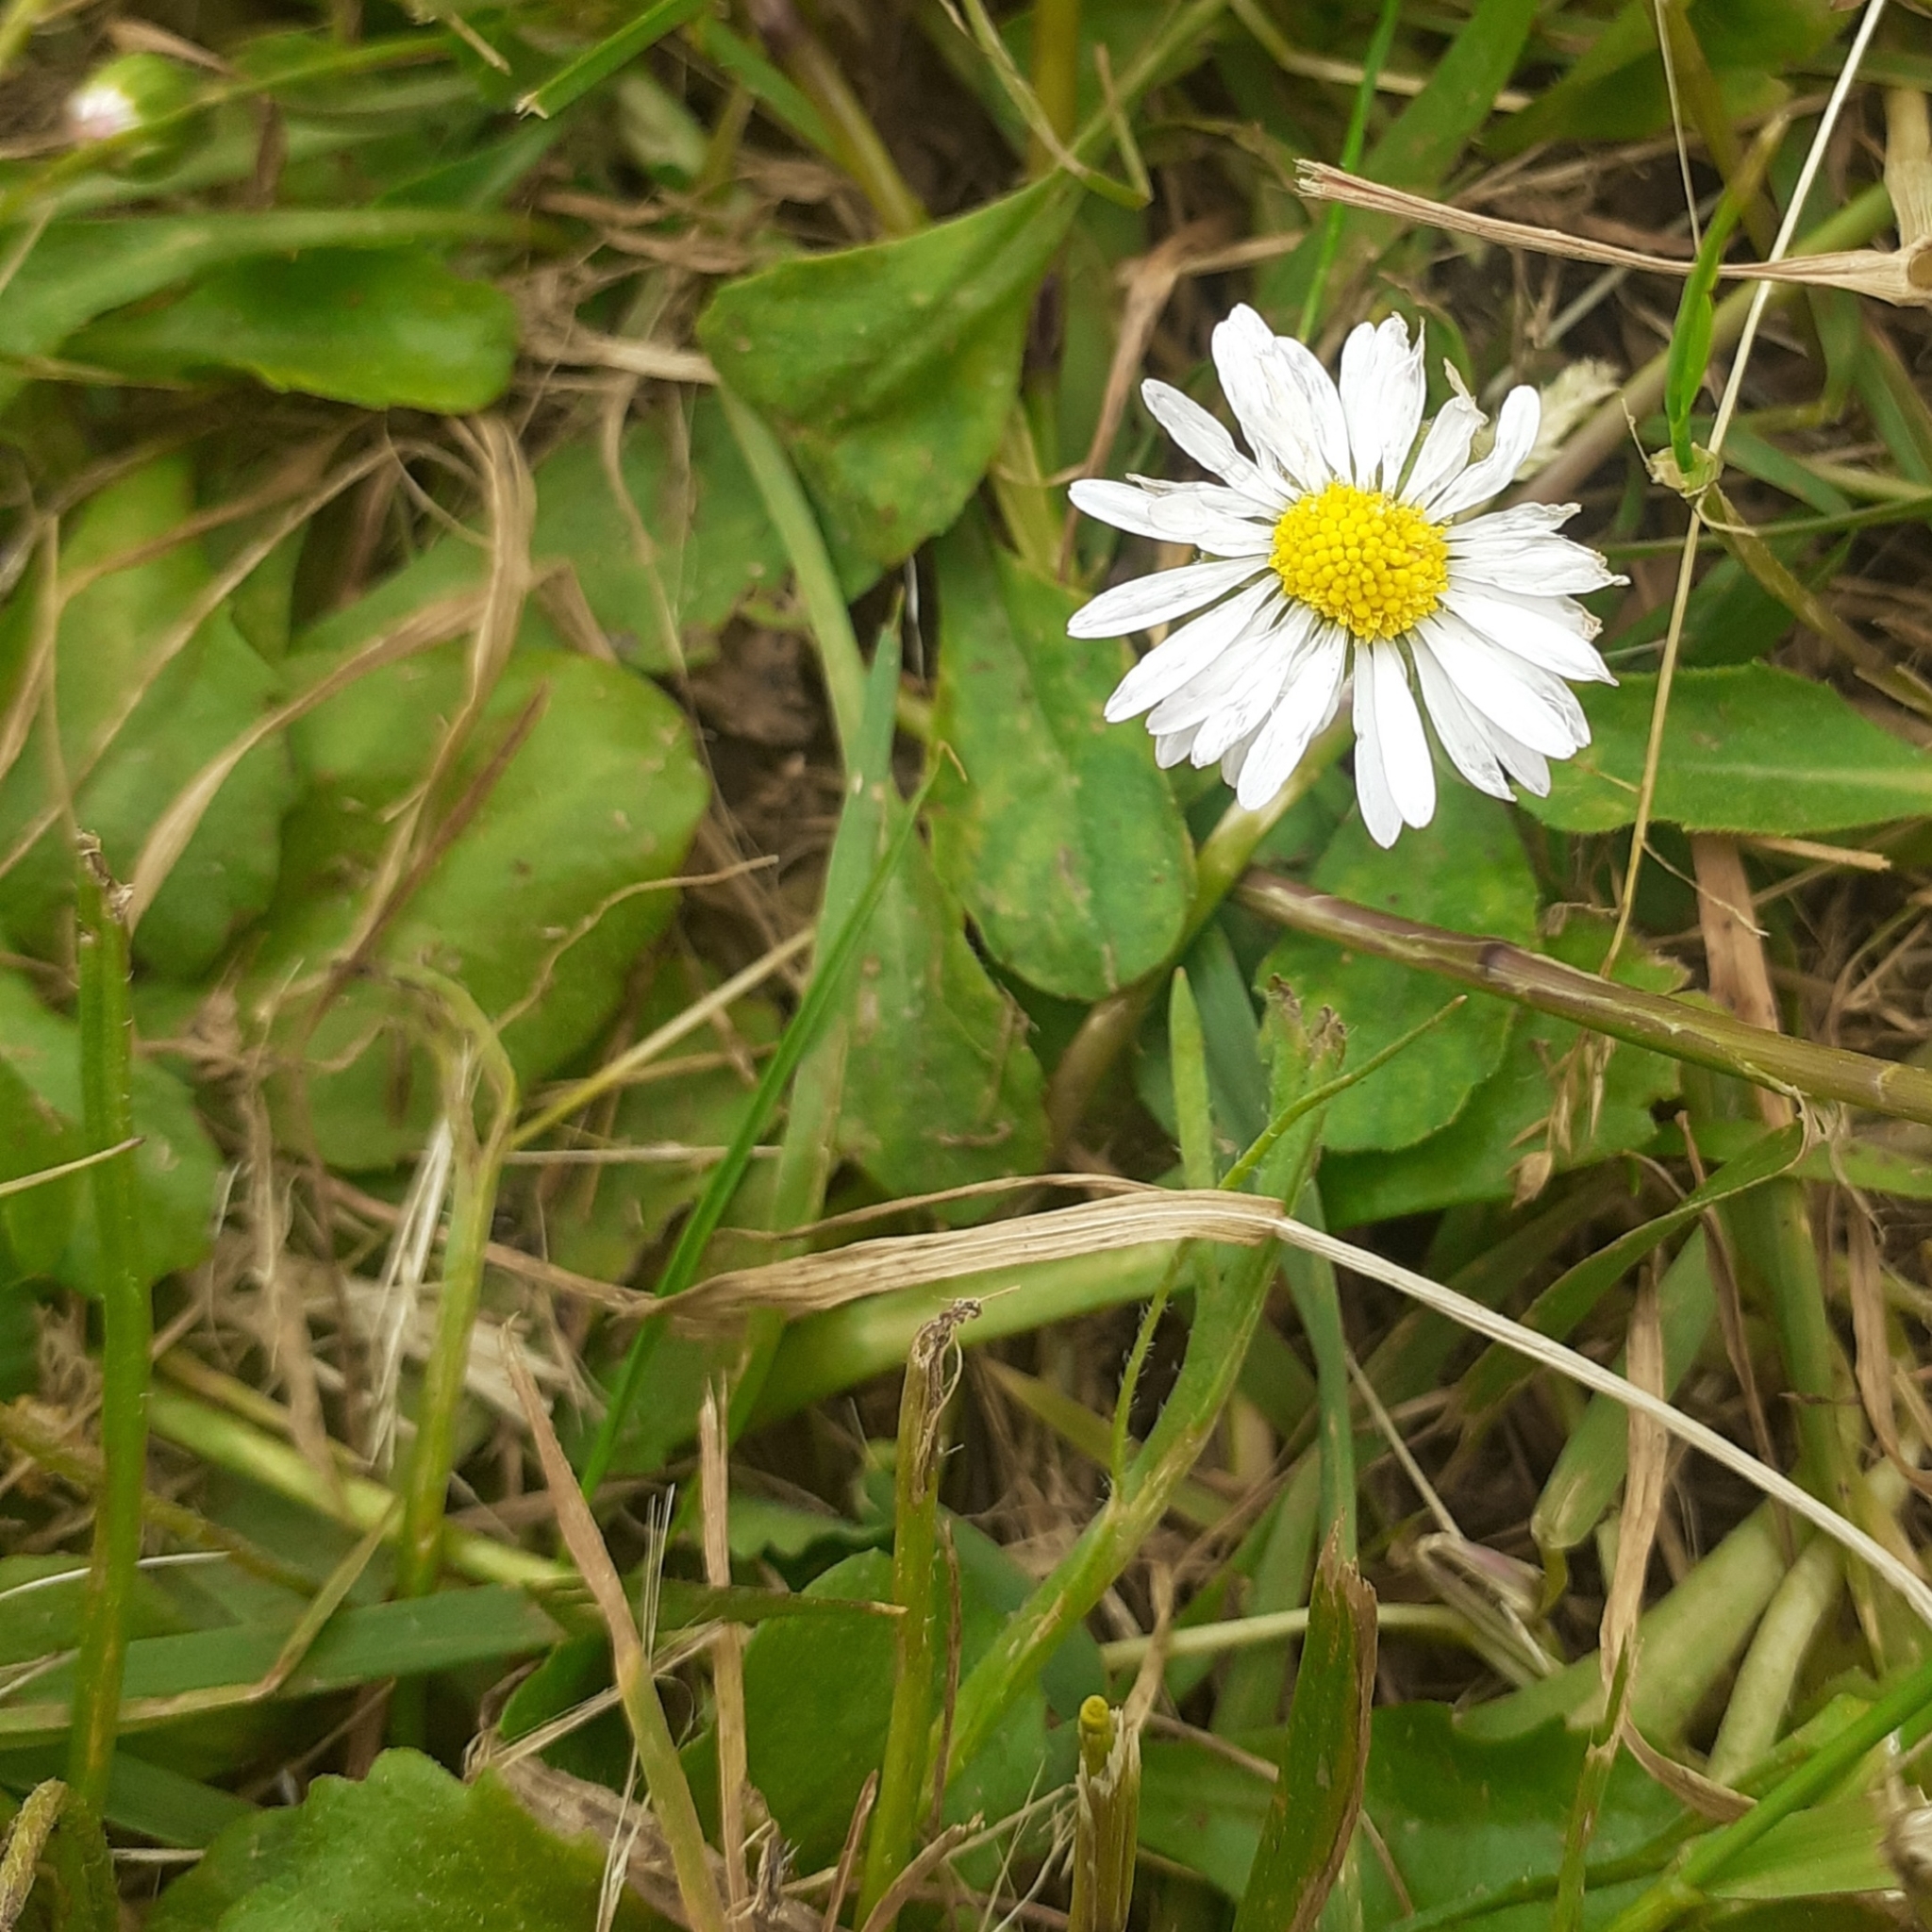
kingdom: Plantae
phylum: Tracheophyta
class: Magnoliopsida
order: Asterales
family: Asteraceae
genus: Bellis
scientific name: Bellis perennis
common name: Lawndaisy
